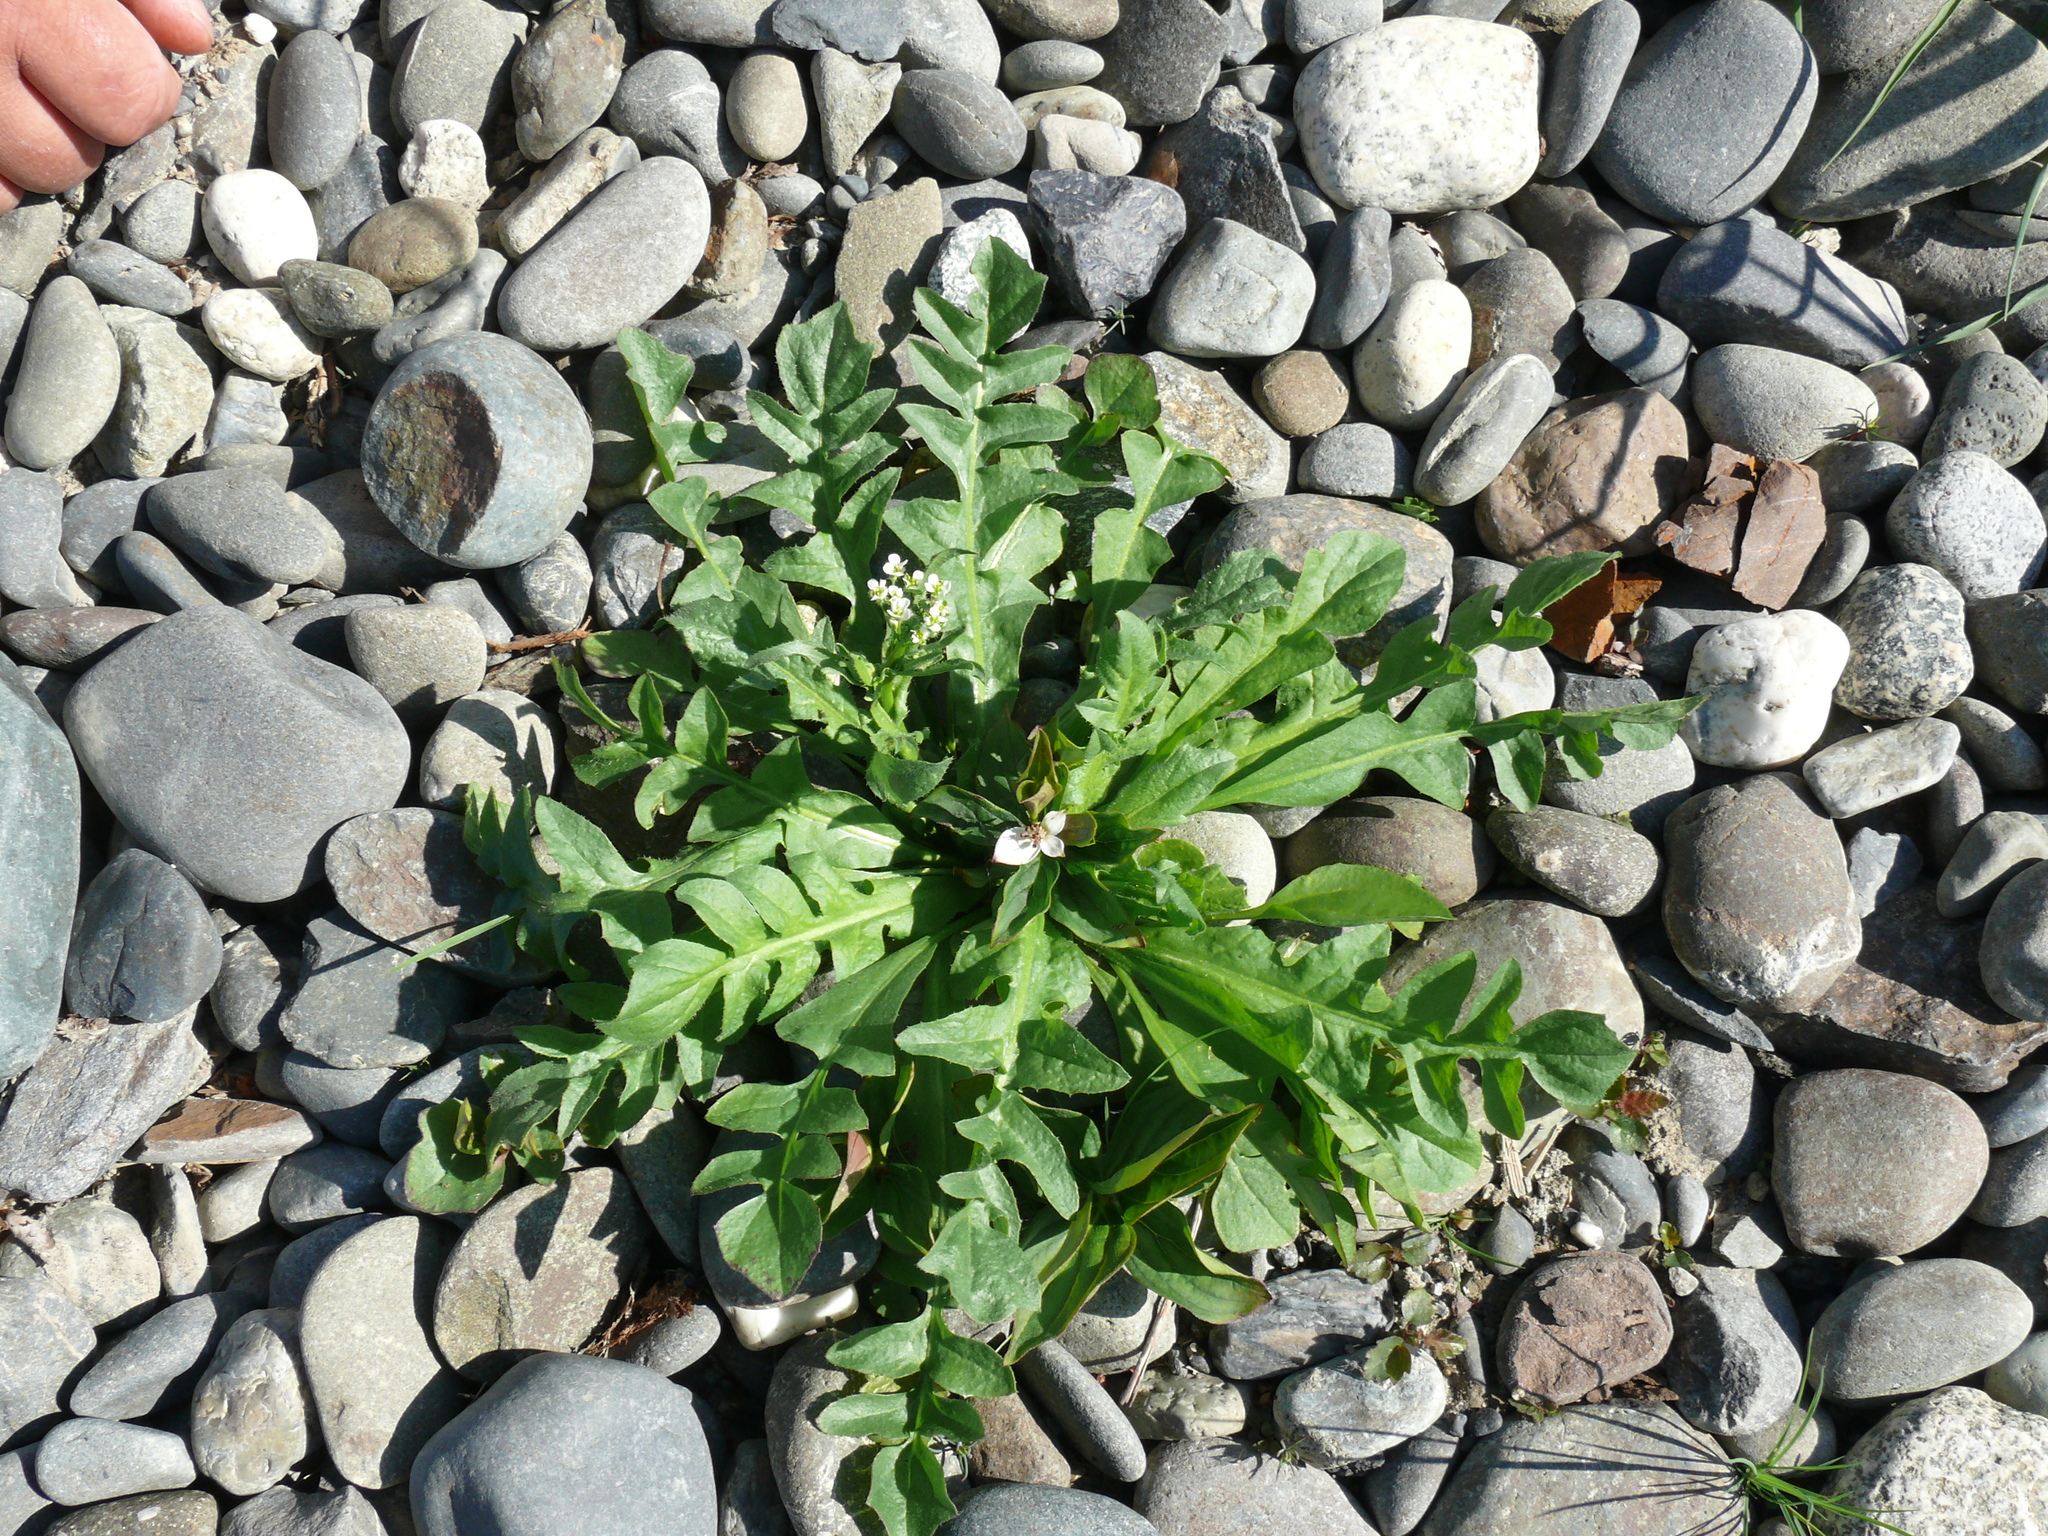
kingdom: Plantae
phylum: Tracheophyta
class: Magnoliopsida
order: Brassicales
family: Brassicaceae
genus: Capsella
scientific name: Capsella bursa-pastoris
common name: Shepherd's purse
